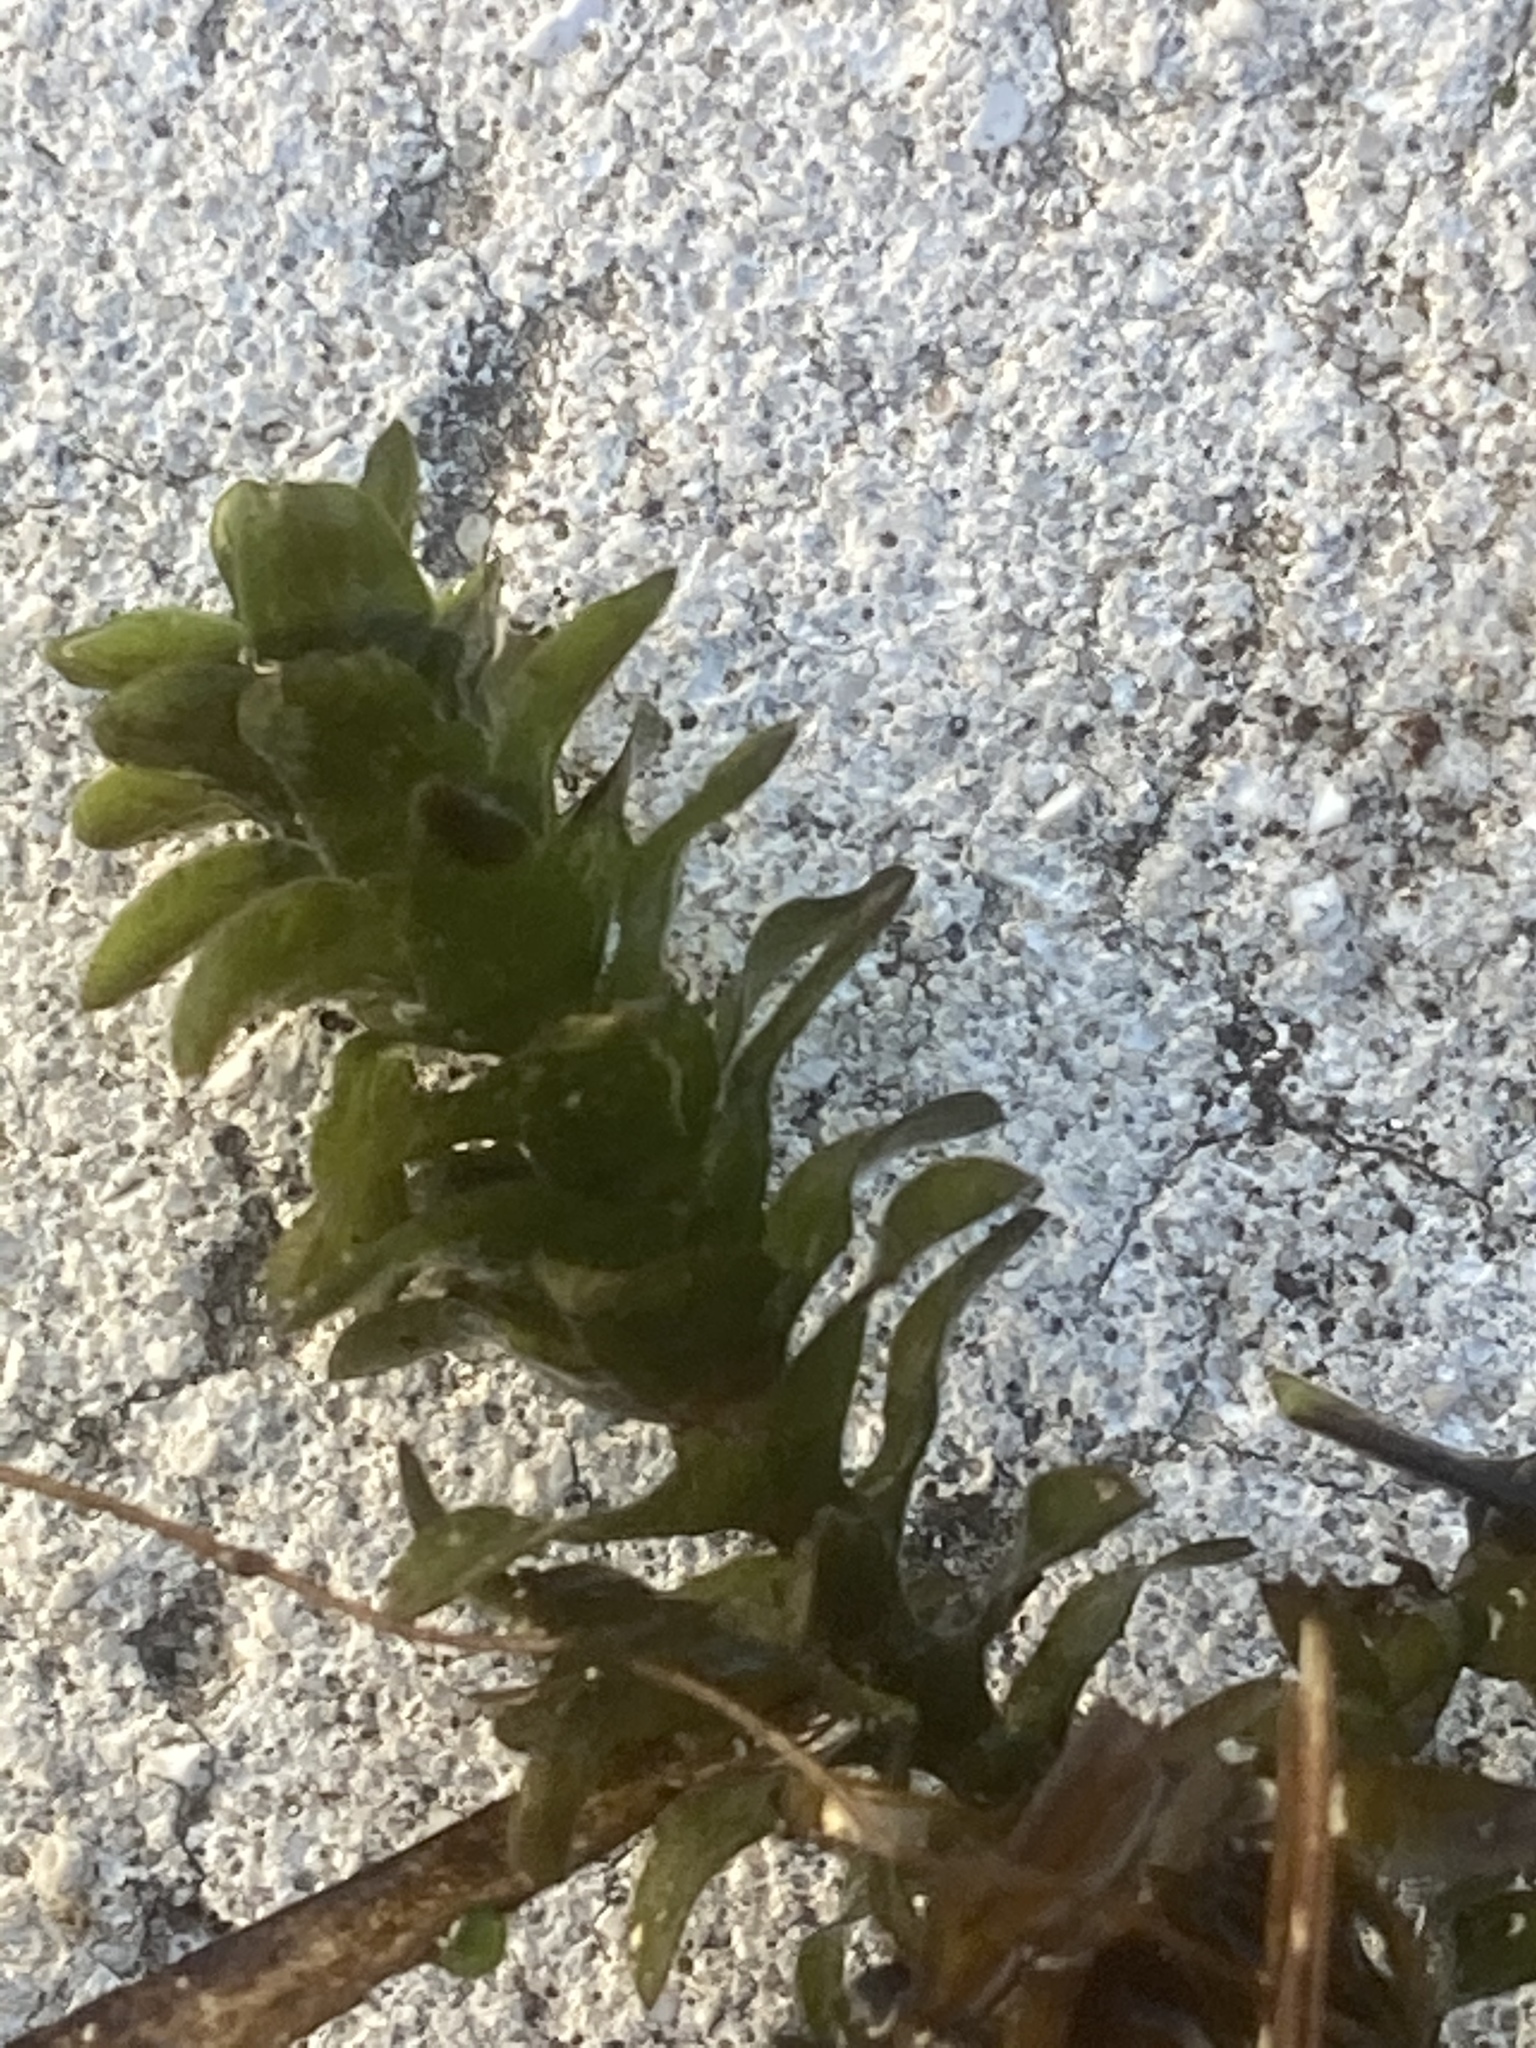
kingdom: Plantae
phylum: Tracheophyta
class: Liliopsida
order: Alismatales
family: Hydrocharitaceae
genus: Elodea
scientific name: Elodea canadensis
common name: Canadian waterweed
